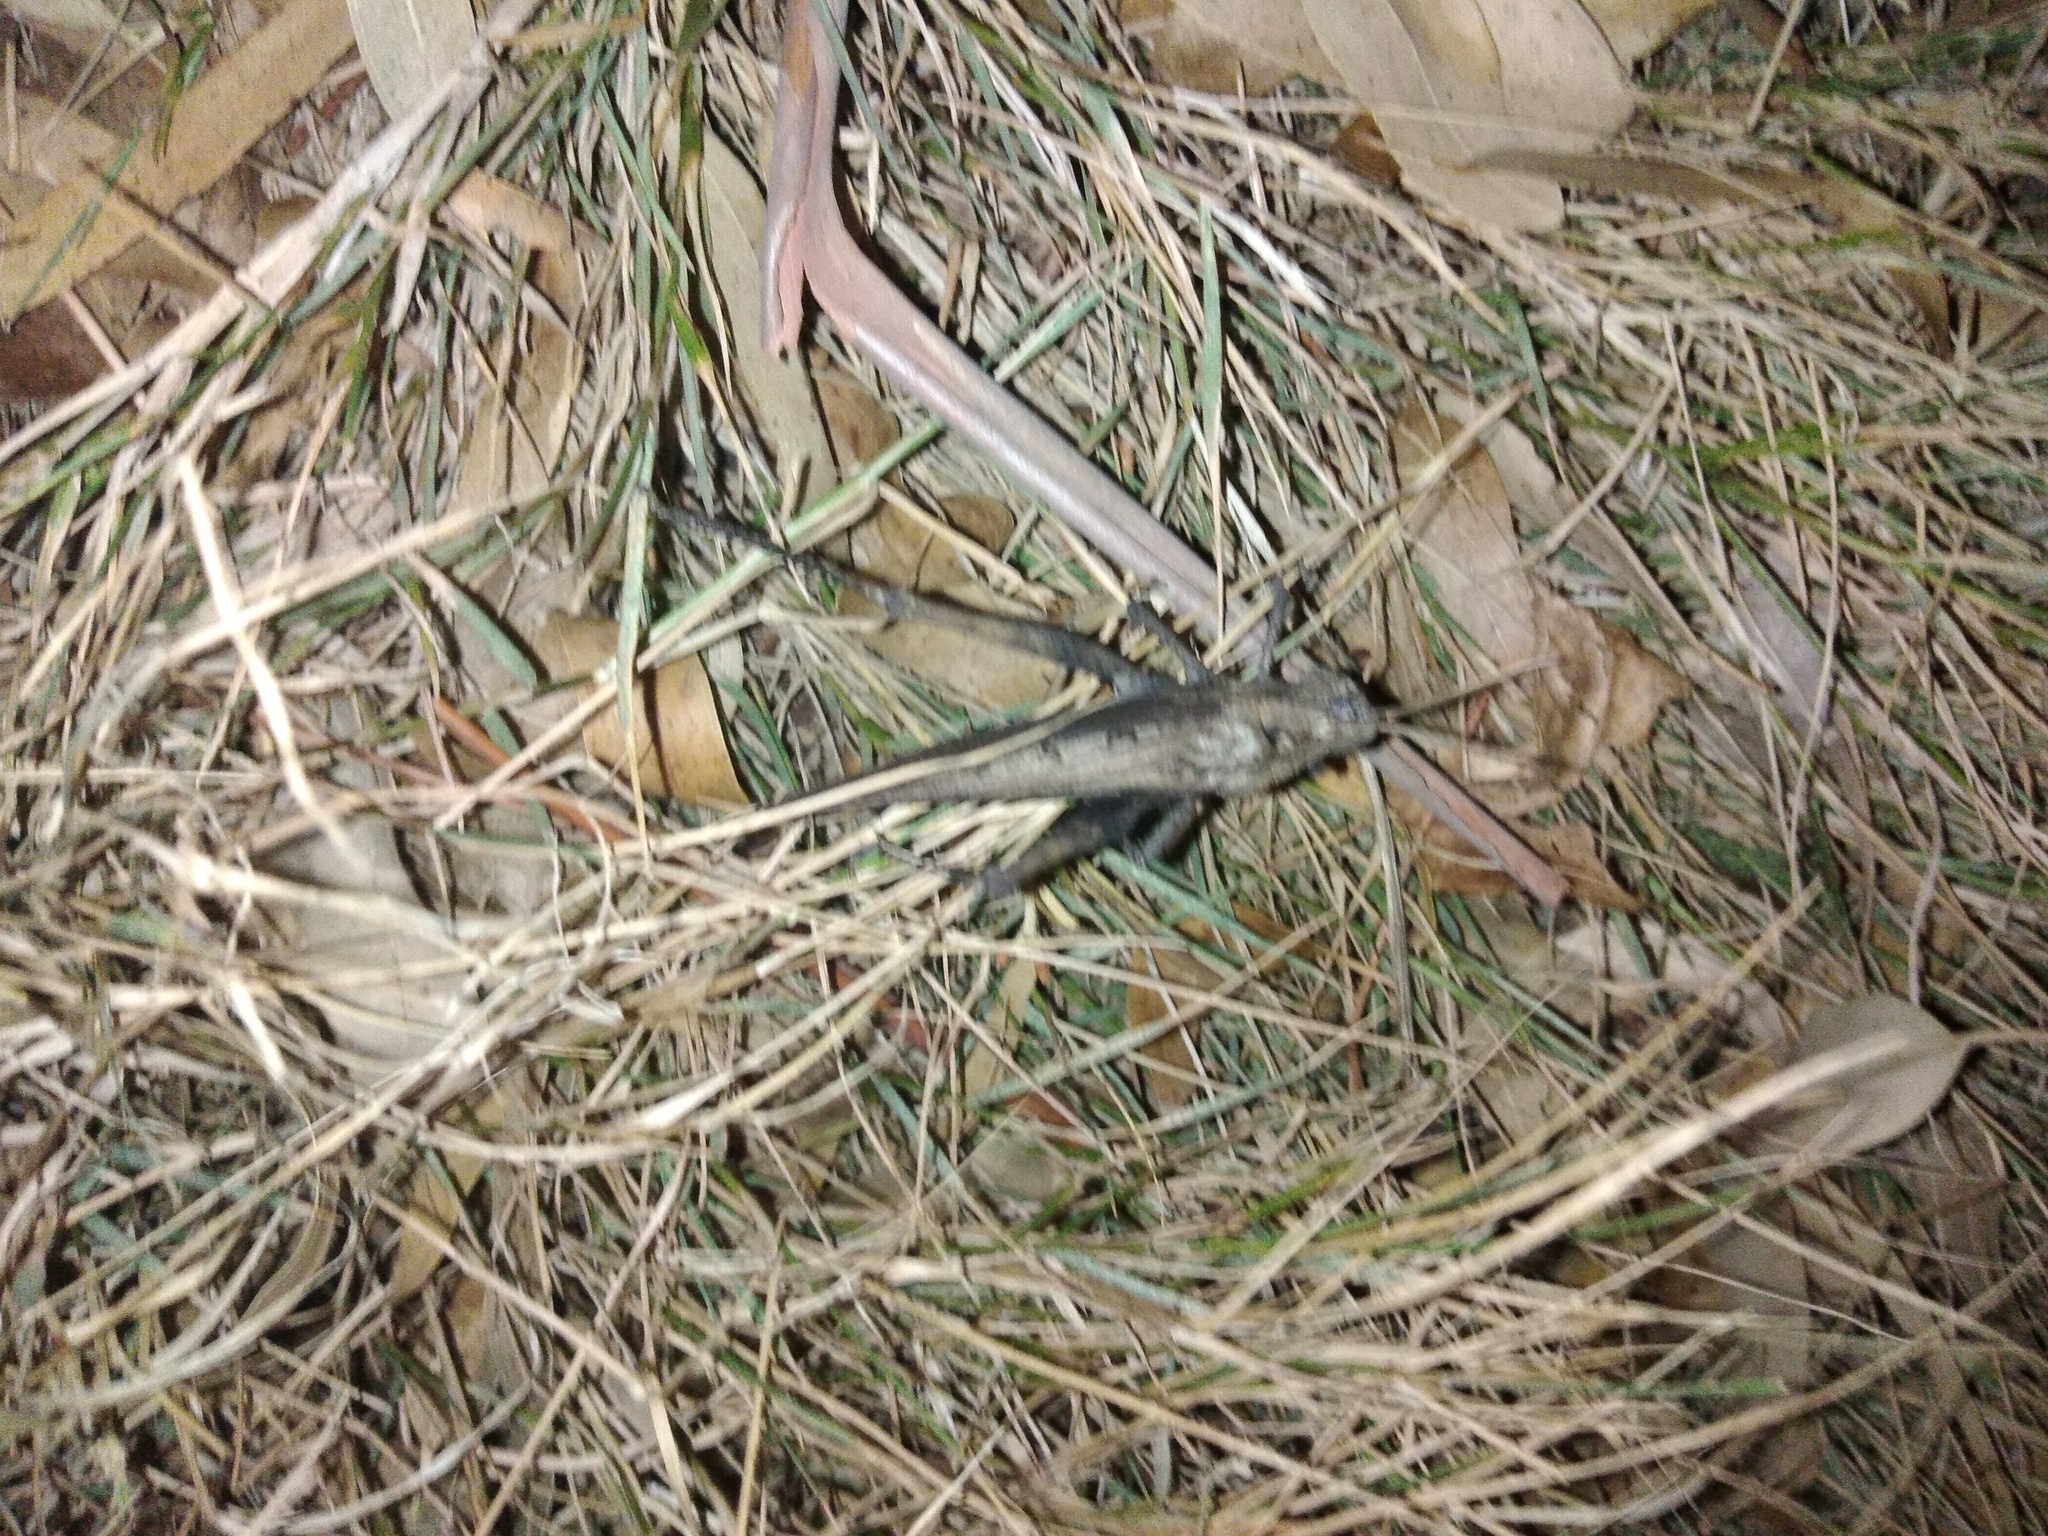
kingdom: Animalia
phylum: Arthropoda
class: Insecta
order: Orthoptera
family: Romaleidae
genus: Xyleus
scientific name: Xyleus discoideus
